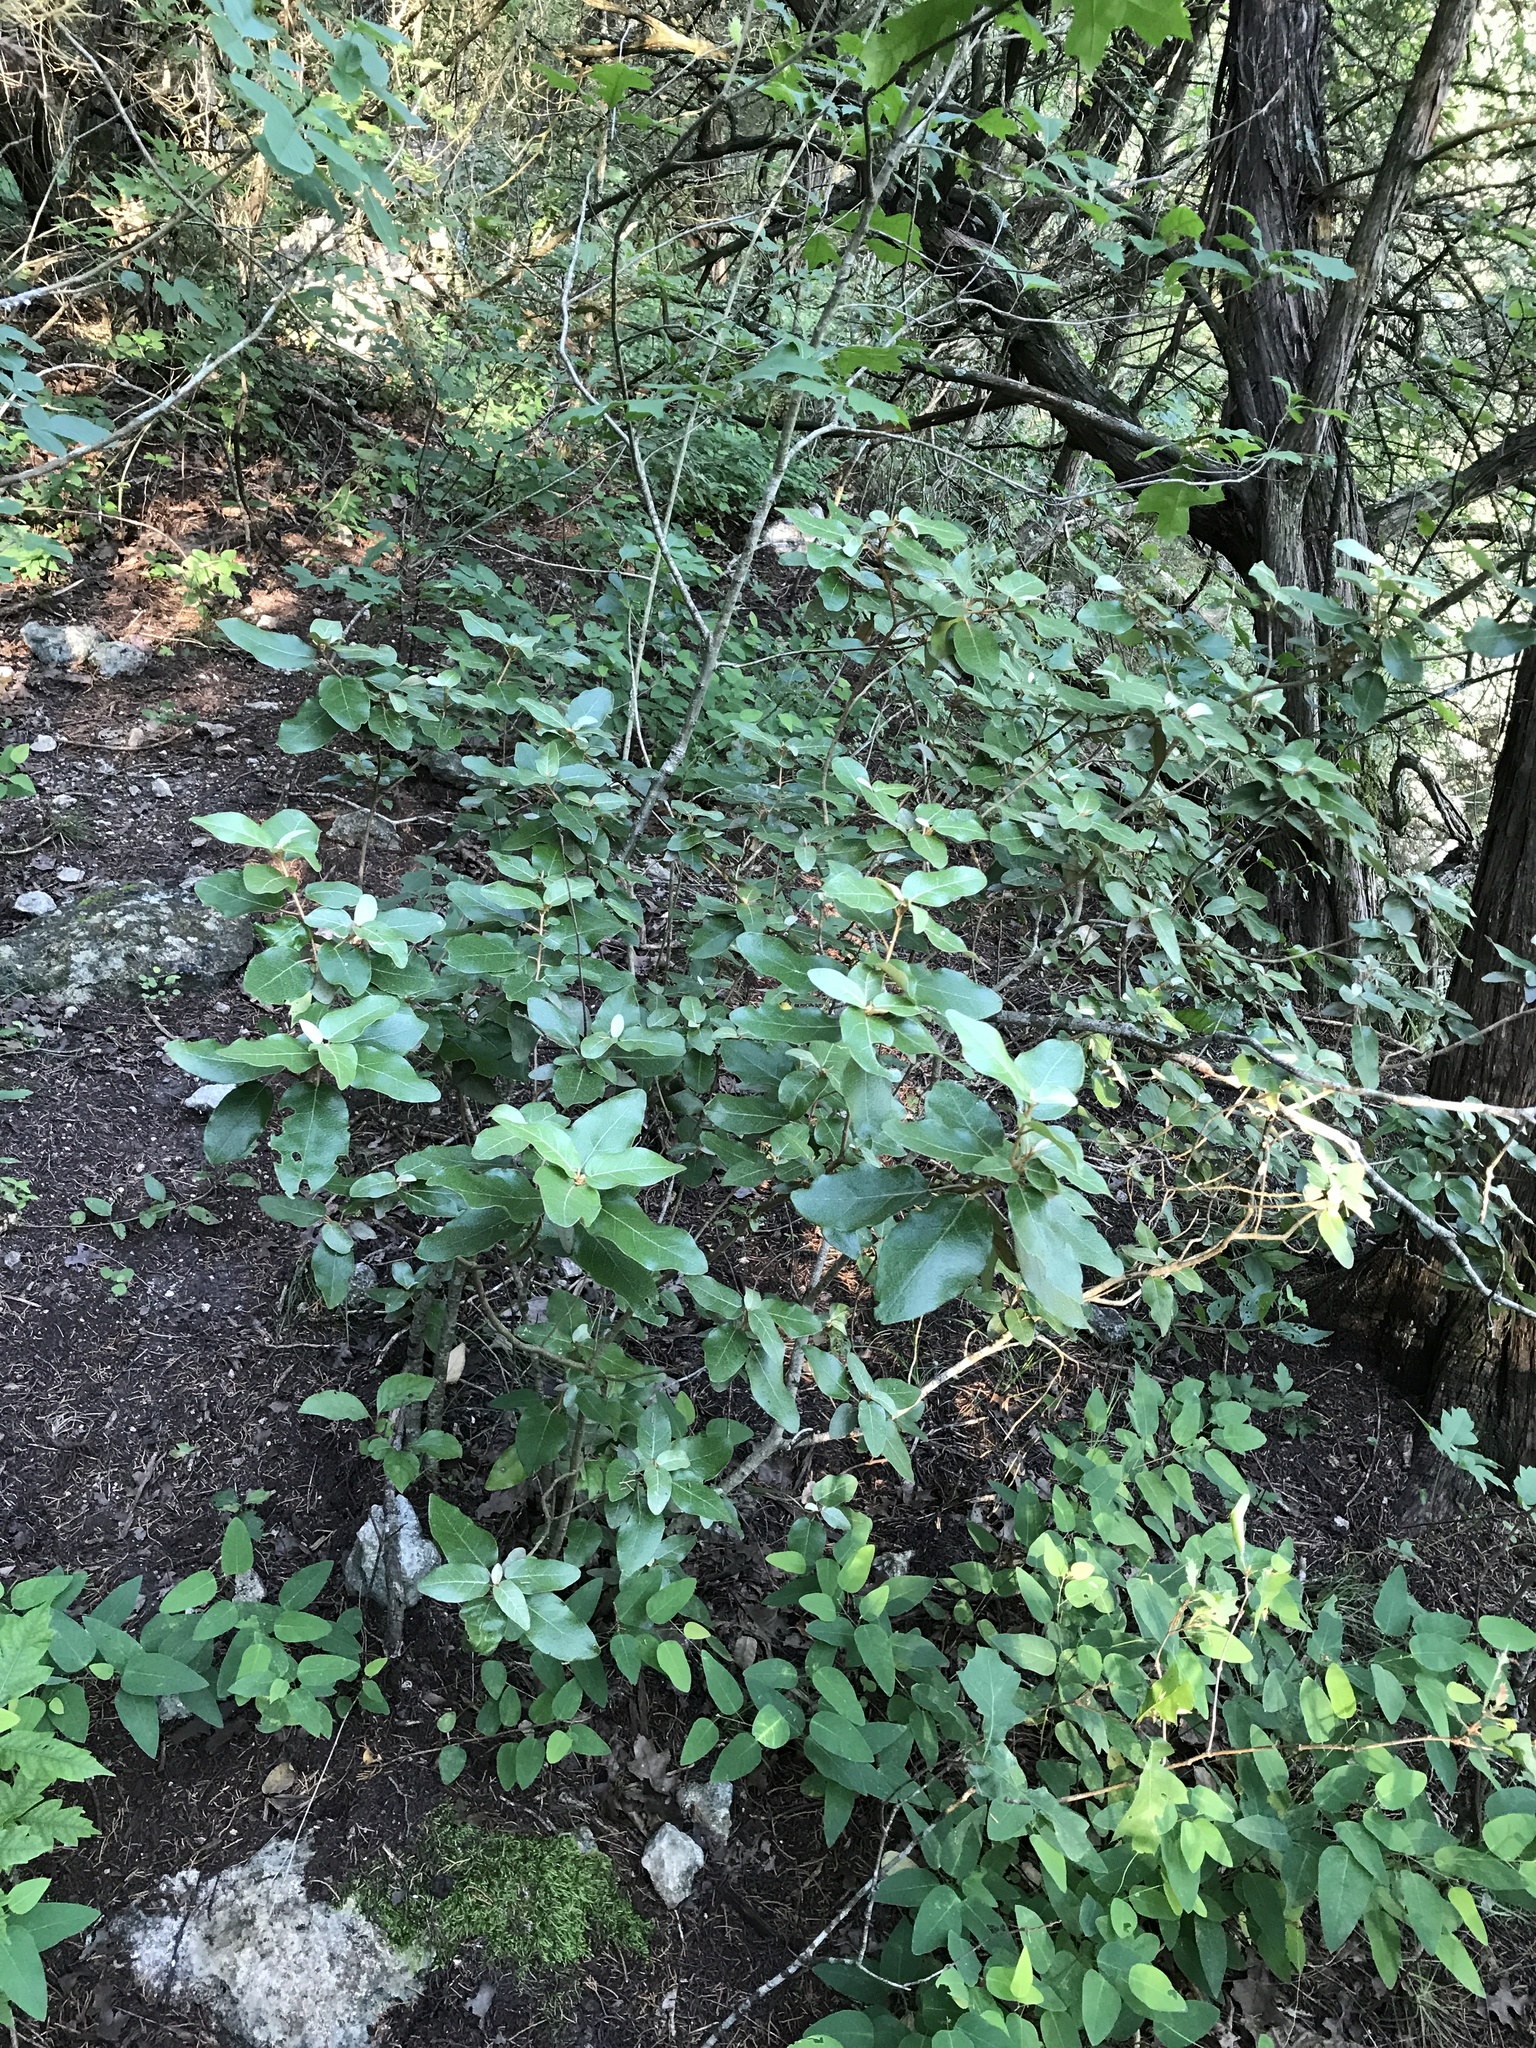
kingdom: Plantae
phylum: Tracheophyta
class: Magnoliopsida
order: Malpighiales
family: Euphorbiaceae
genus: Croton
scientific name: Croton alabamensis
